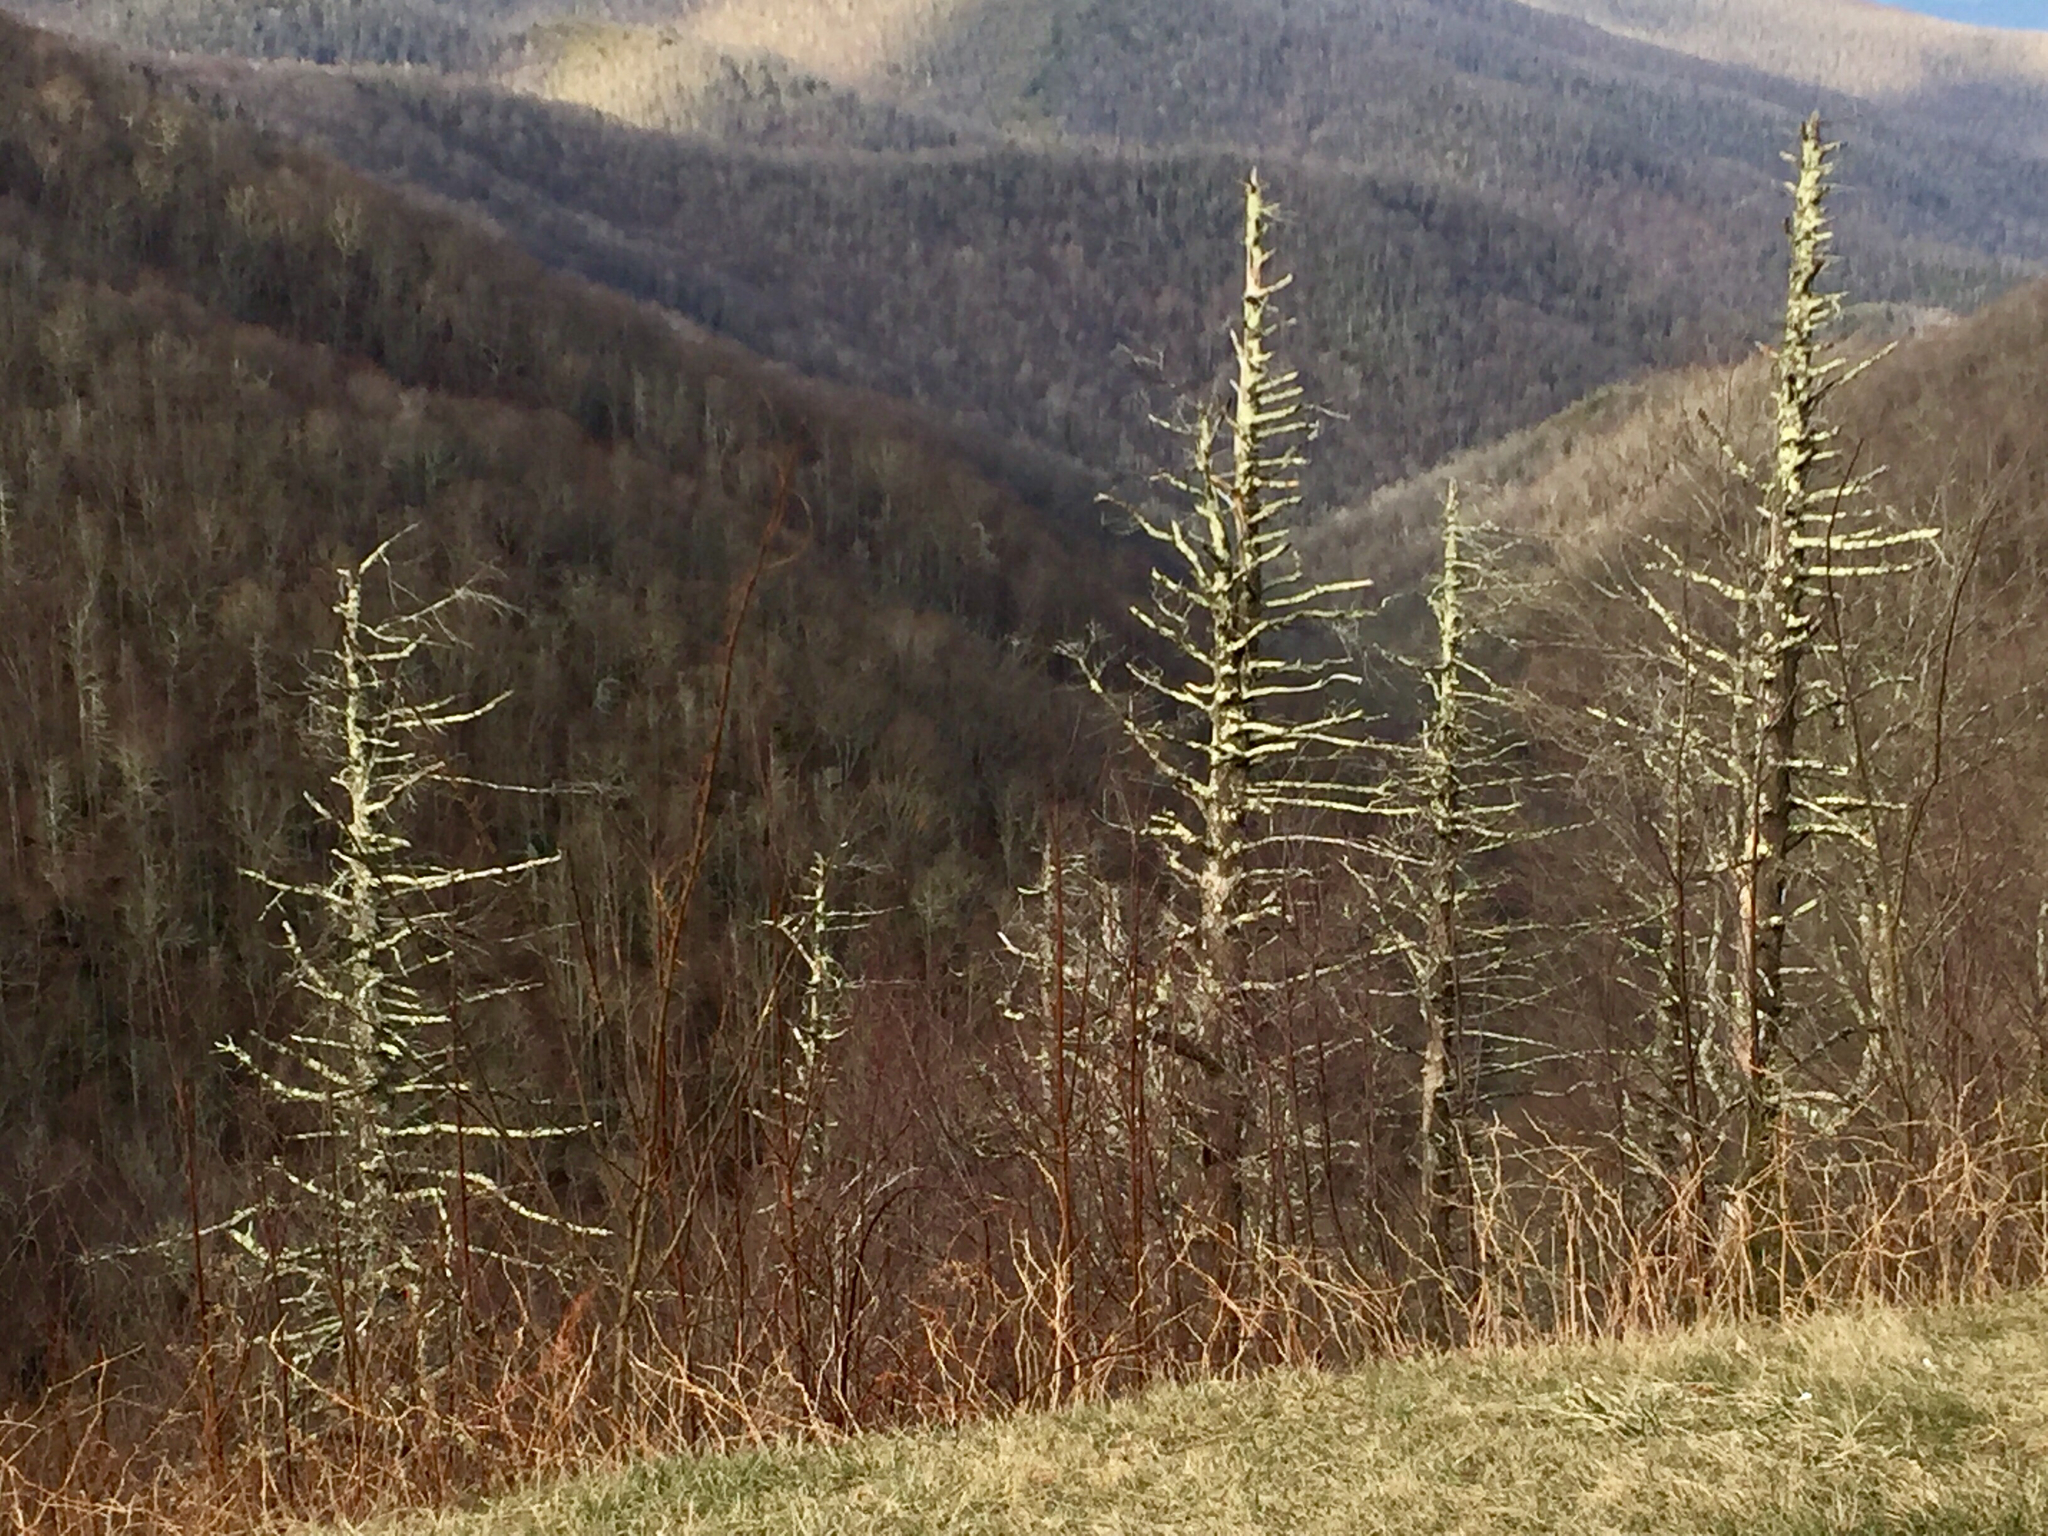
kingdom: Plantae
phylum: Tracheophyta
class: Pinopsida
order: Pinales
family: Pinaceae
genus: Abies
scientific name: Abies fraseri
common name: Fraser fir
